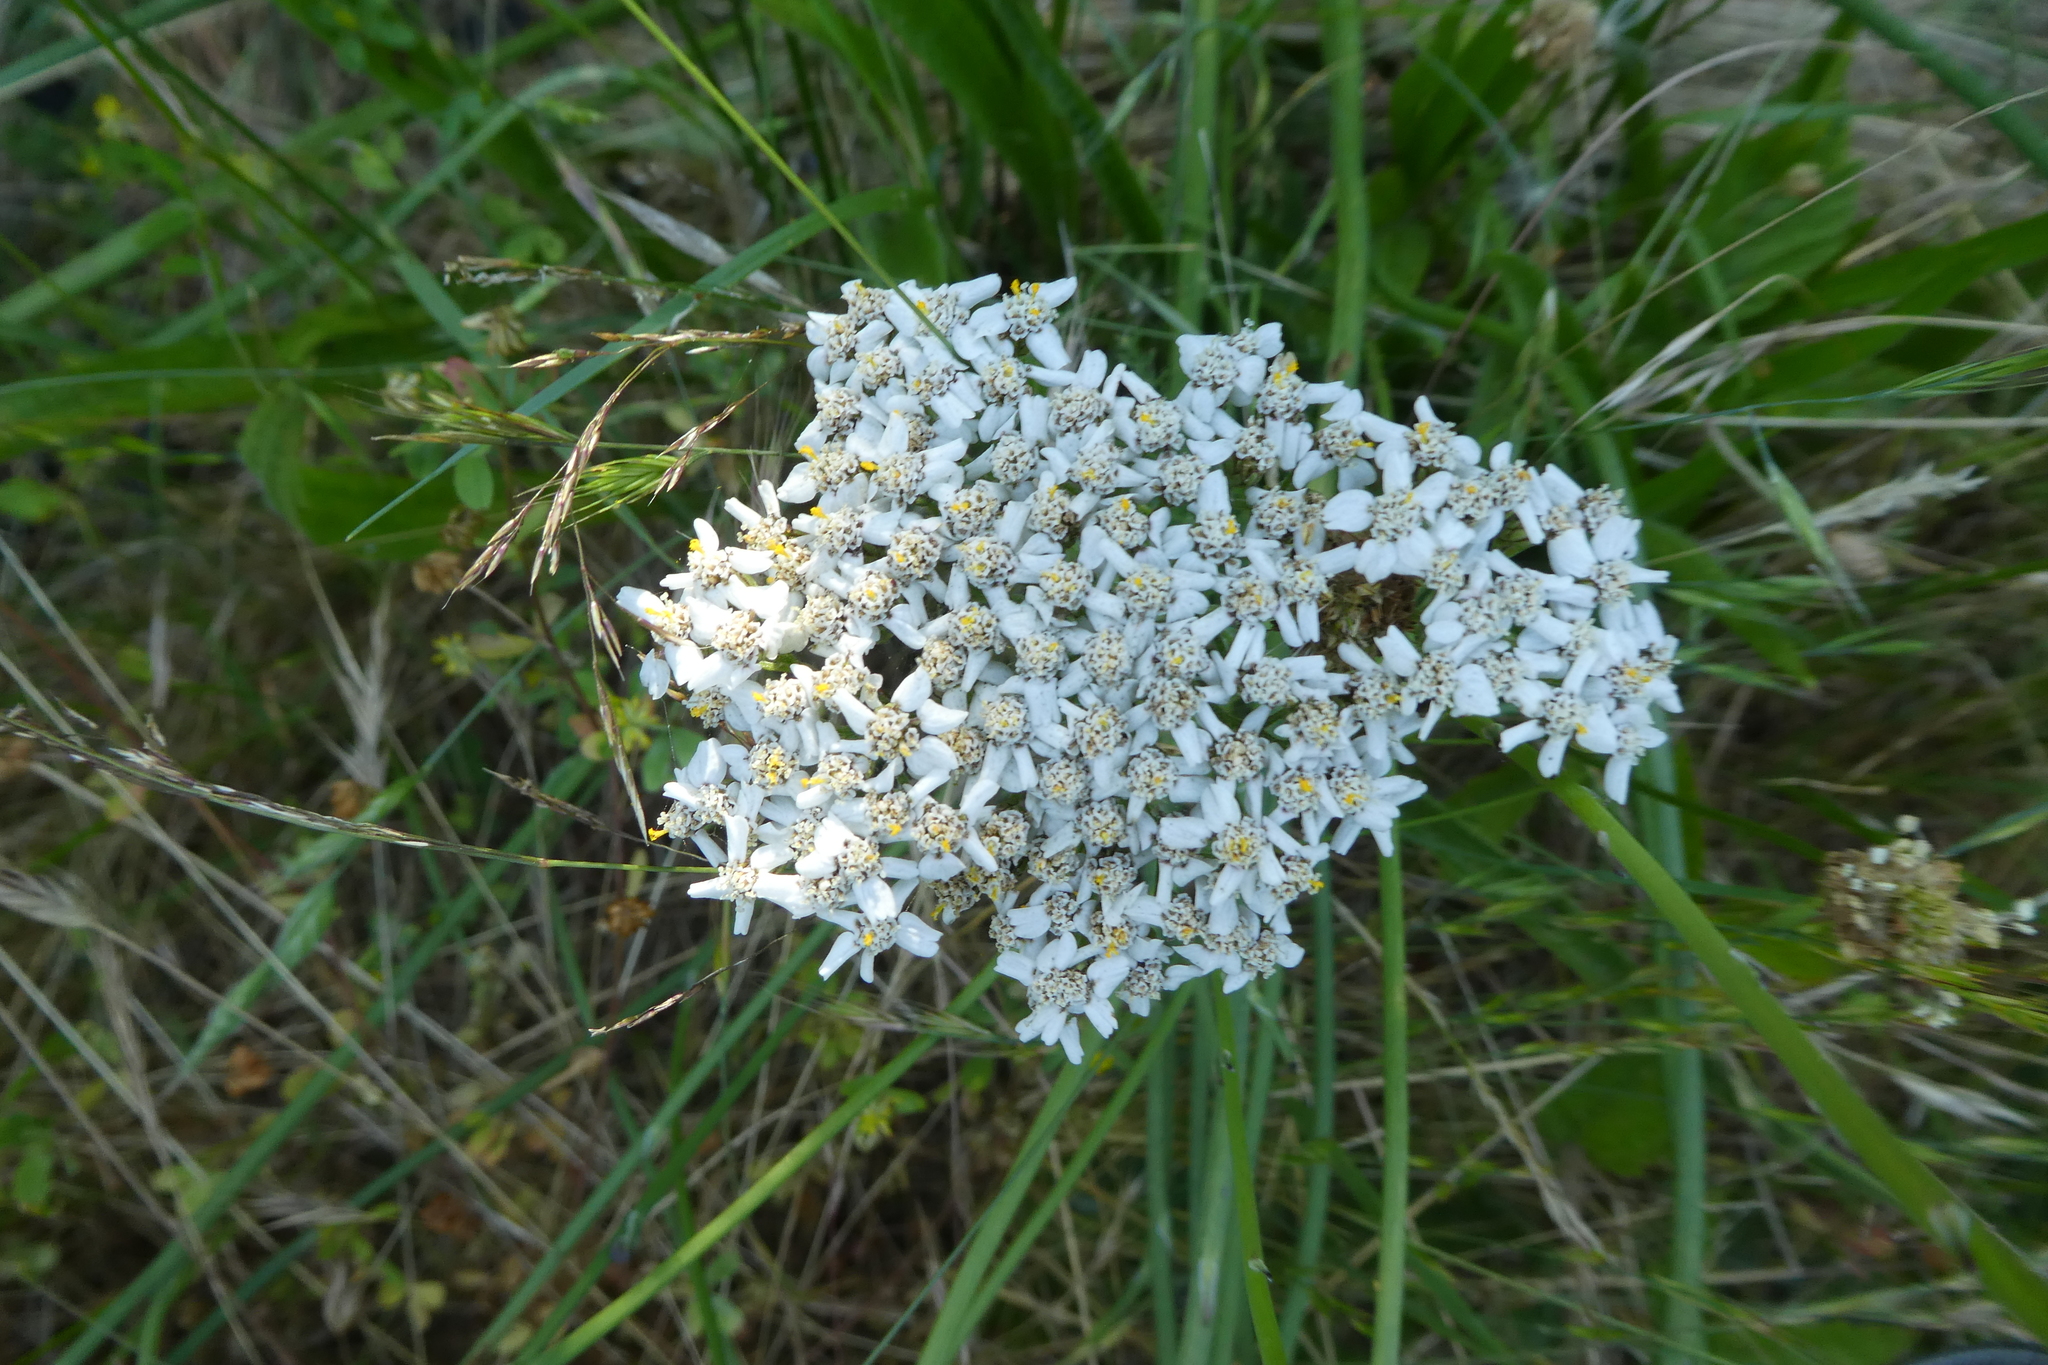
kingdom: Plantae
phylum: Tracheophyta
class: Magnoliopsida
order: Asterales
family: Asteraceae
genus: Achillea
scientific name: Achillea millefolium
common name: Yarrow
